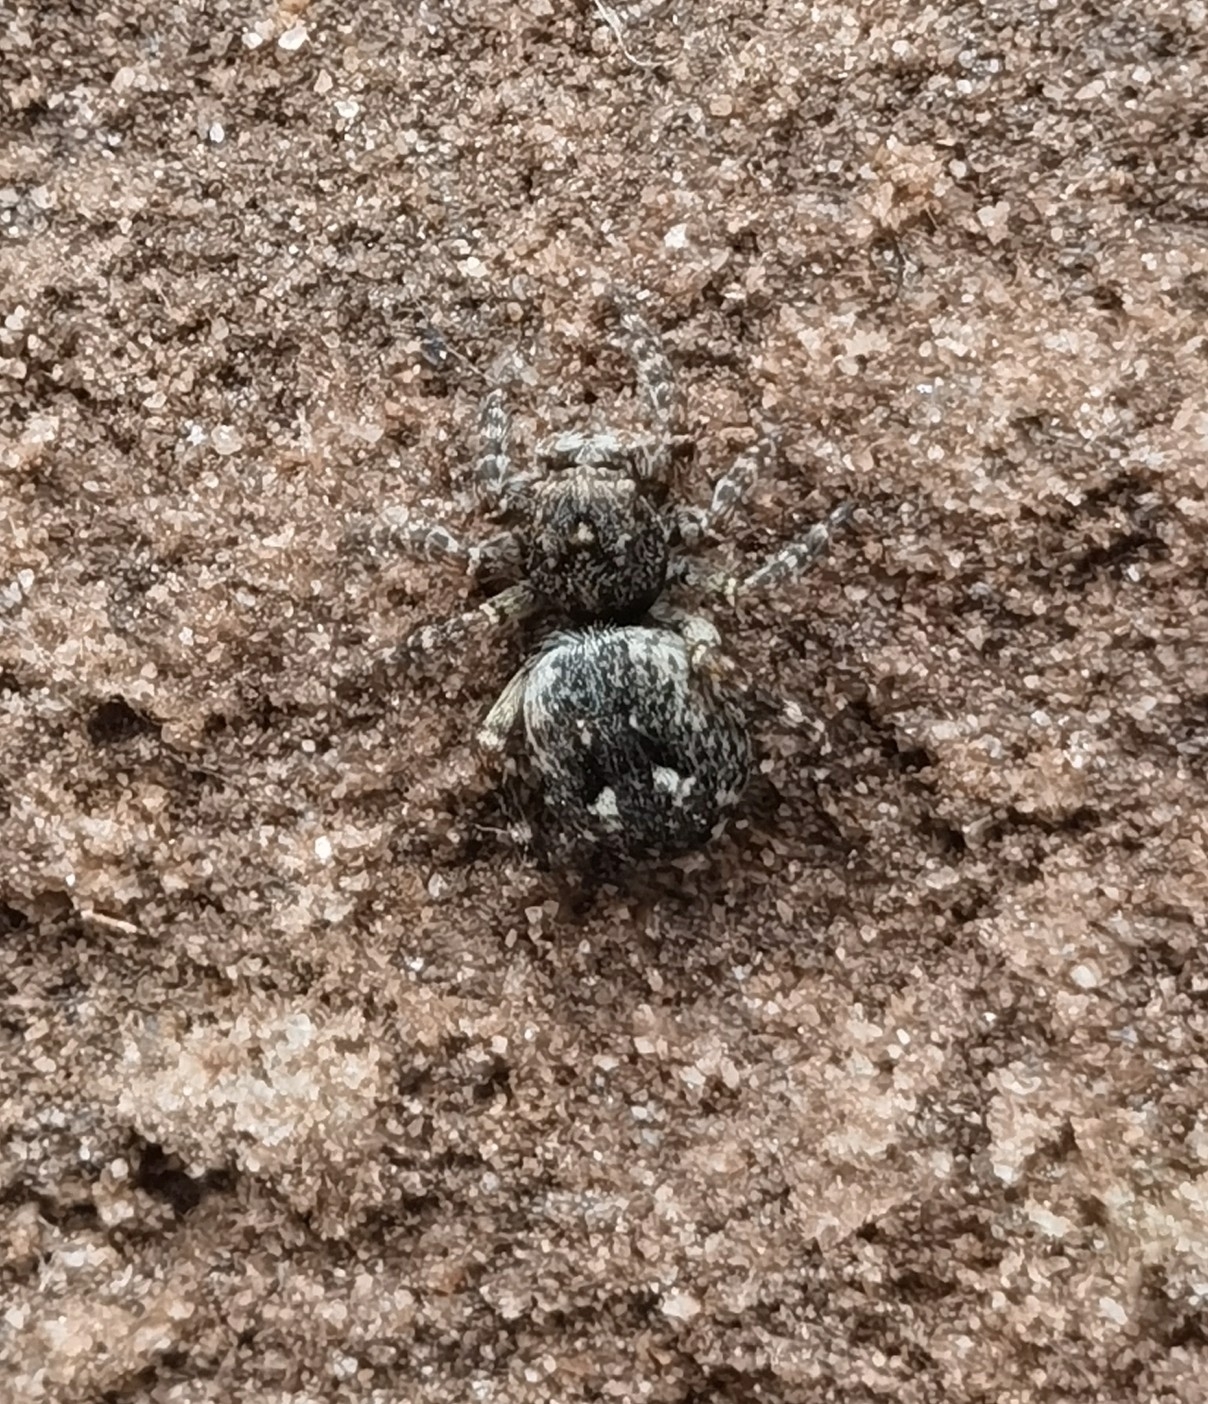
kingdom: Animalia
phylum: Arthropoda
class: Arachnida
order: Araneae
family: Salticidae
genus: Attulus
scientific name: Attulus pubescens
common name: Jumping spider
